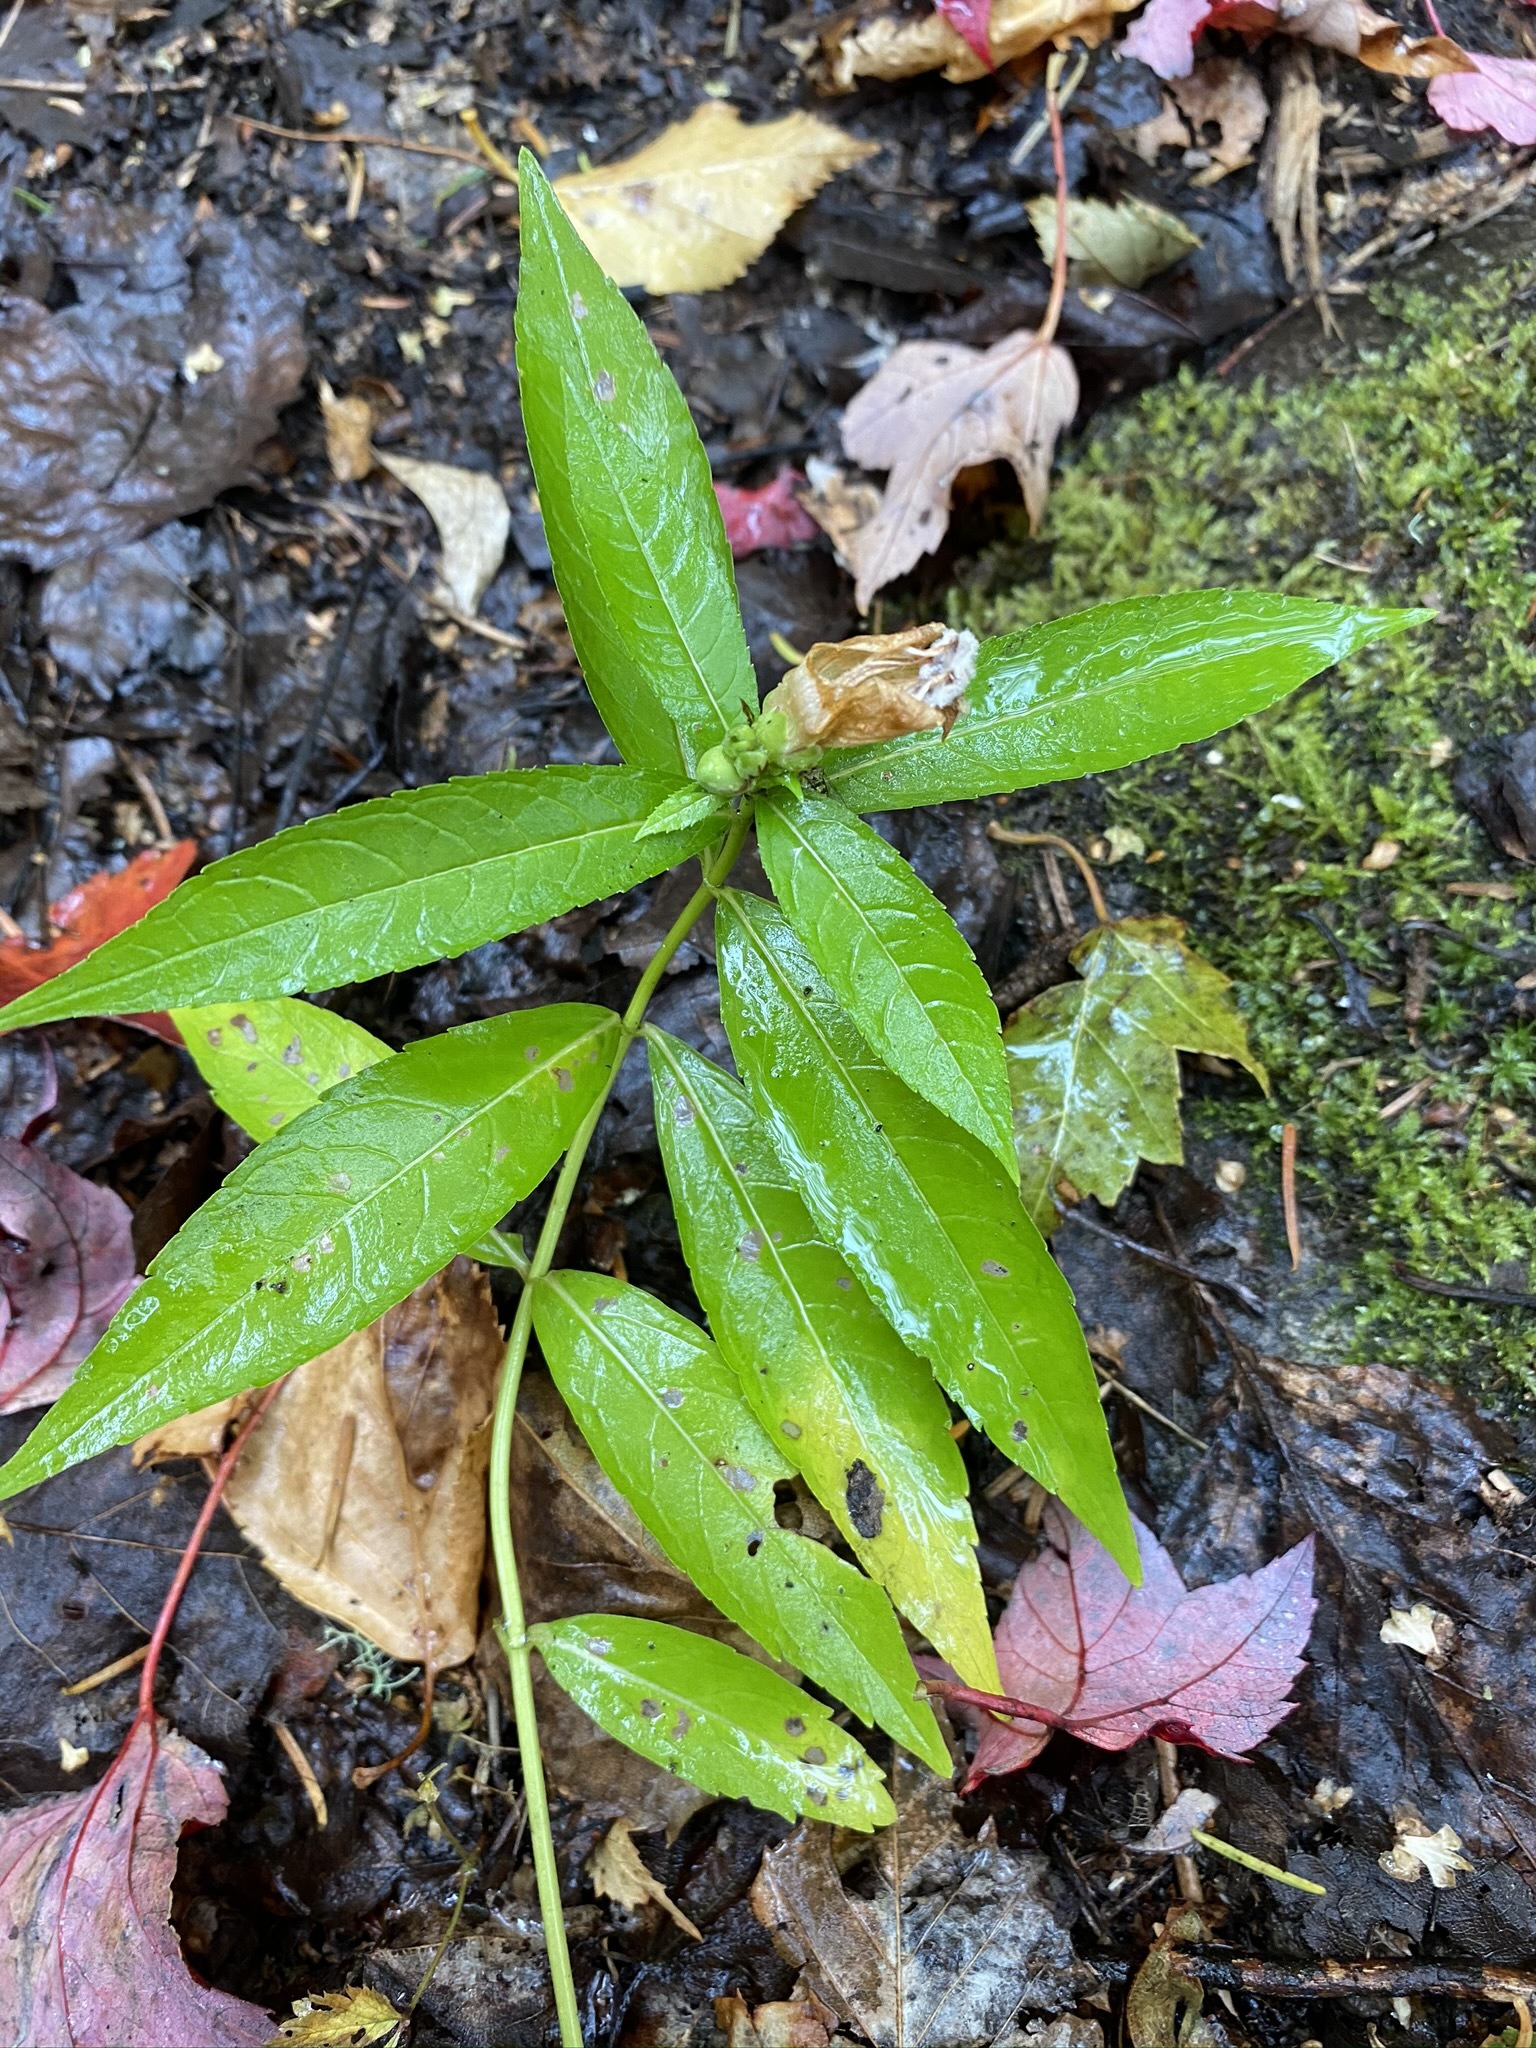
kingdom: Plantae
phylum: Tracheophyta
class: Magnoliopsida
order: Lamiales
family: Plantaginaceae
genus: Chelone
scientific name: Chelone glabra
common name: Snakehead
